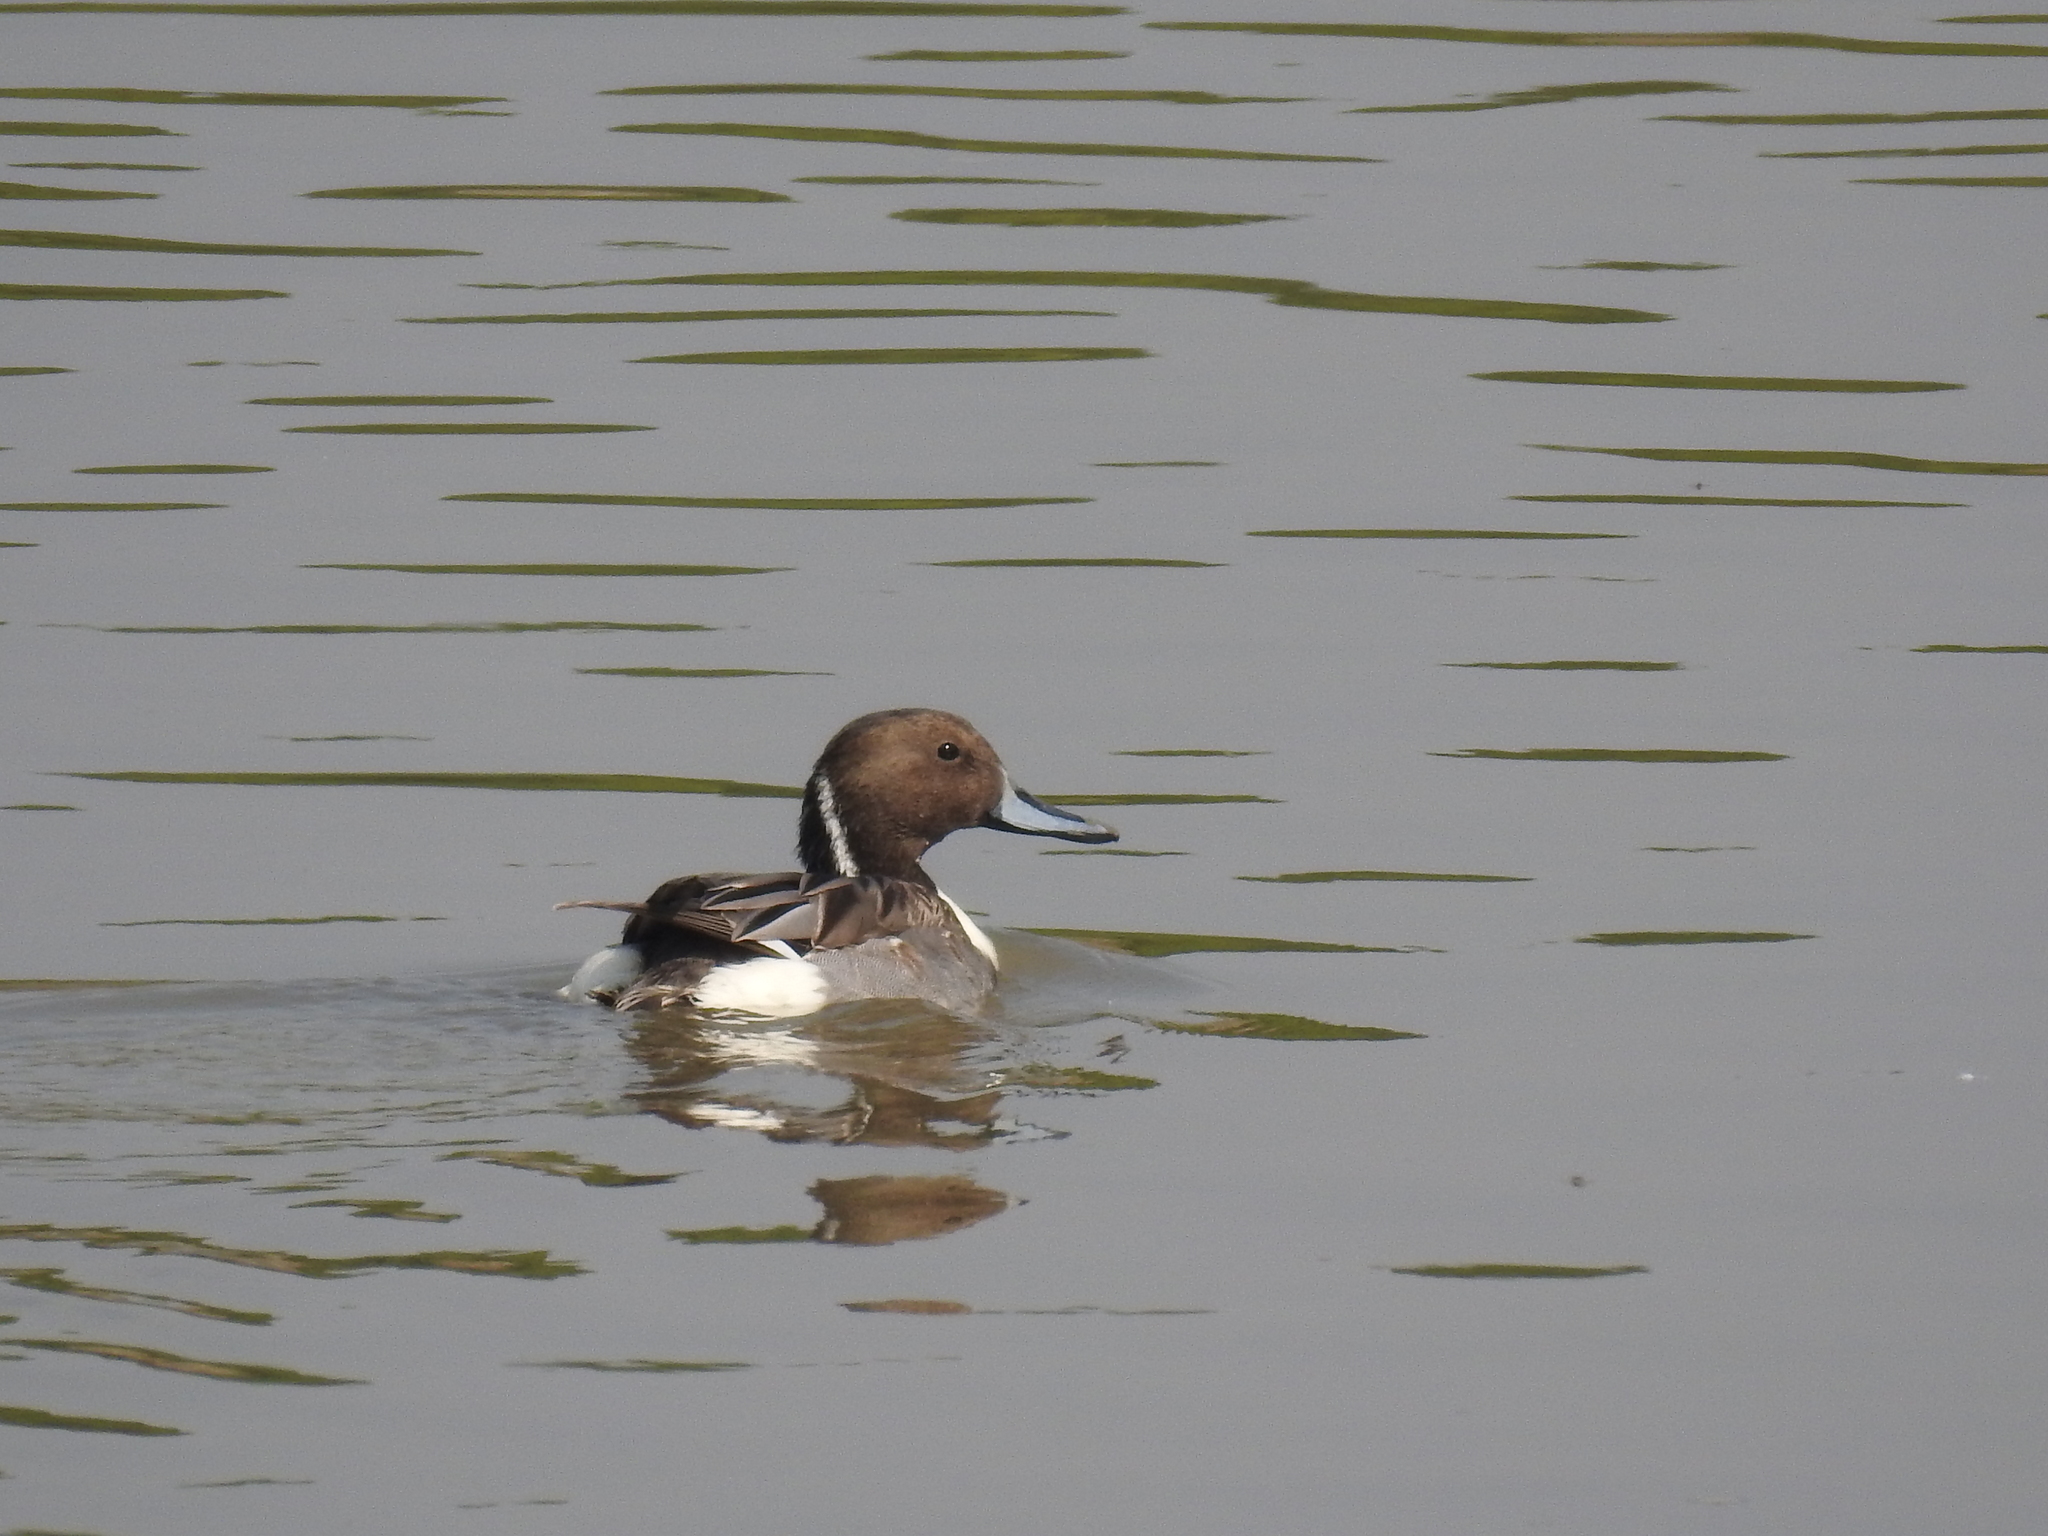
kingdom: Animalia
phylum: Chordata
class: Aves
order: Anseriformes
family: Anatidae
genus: Anas
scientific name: Anas acuta
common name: Northern pintail
